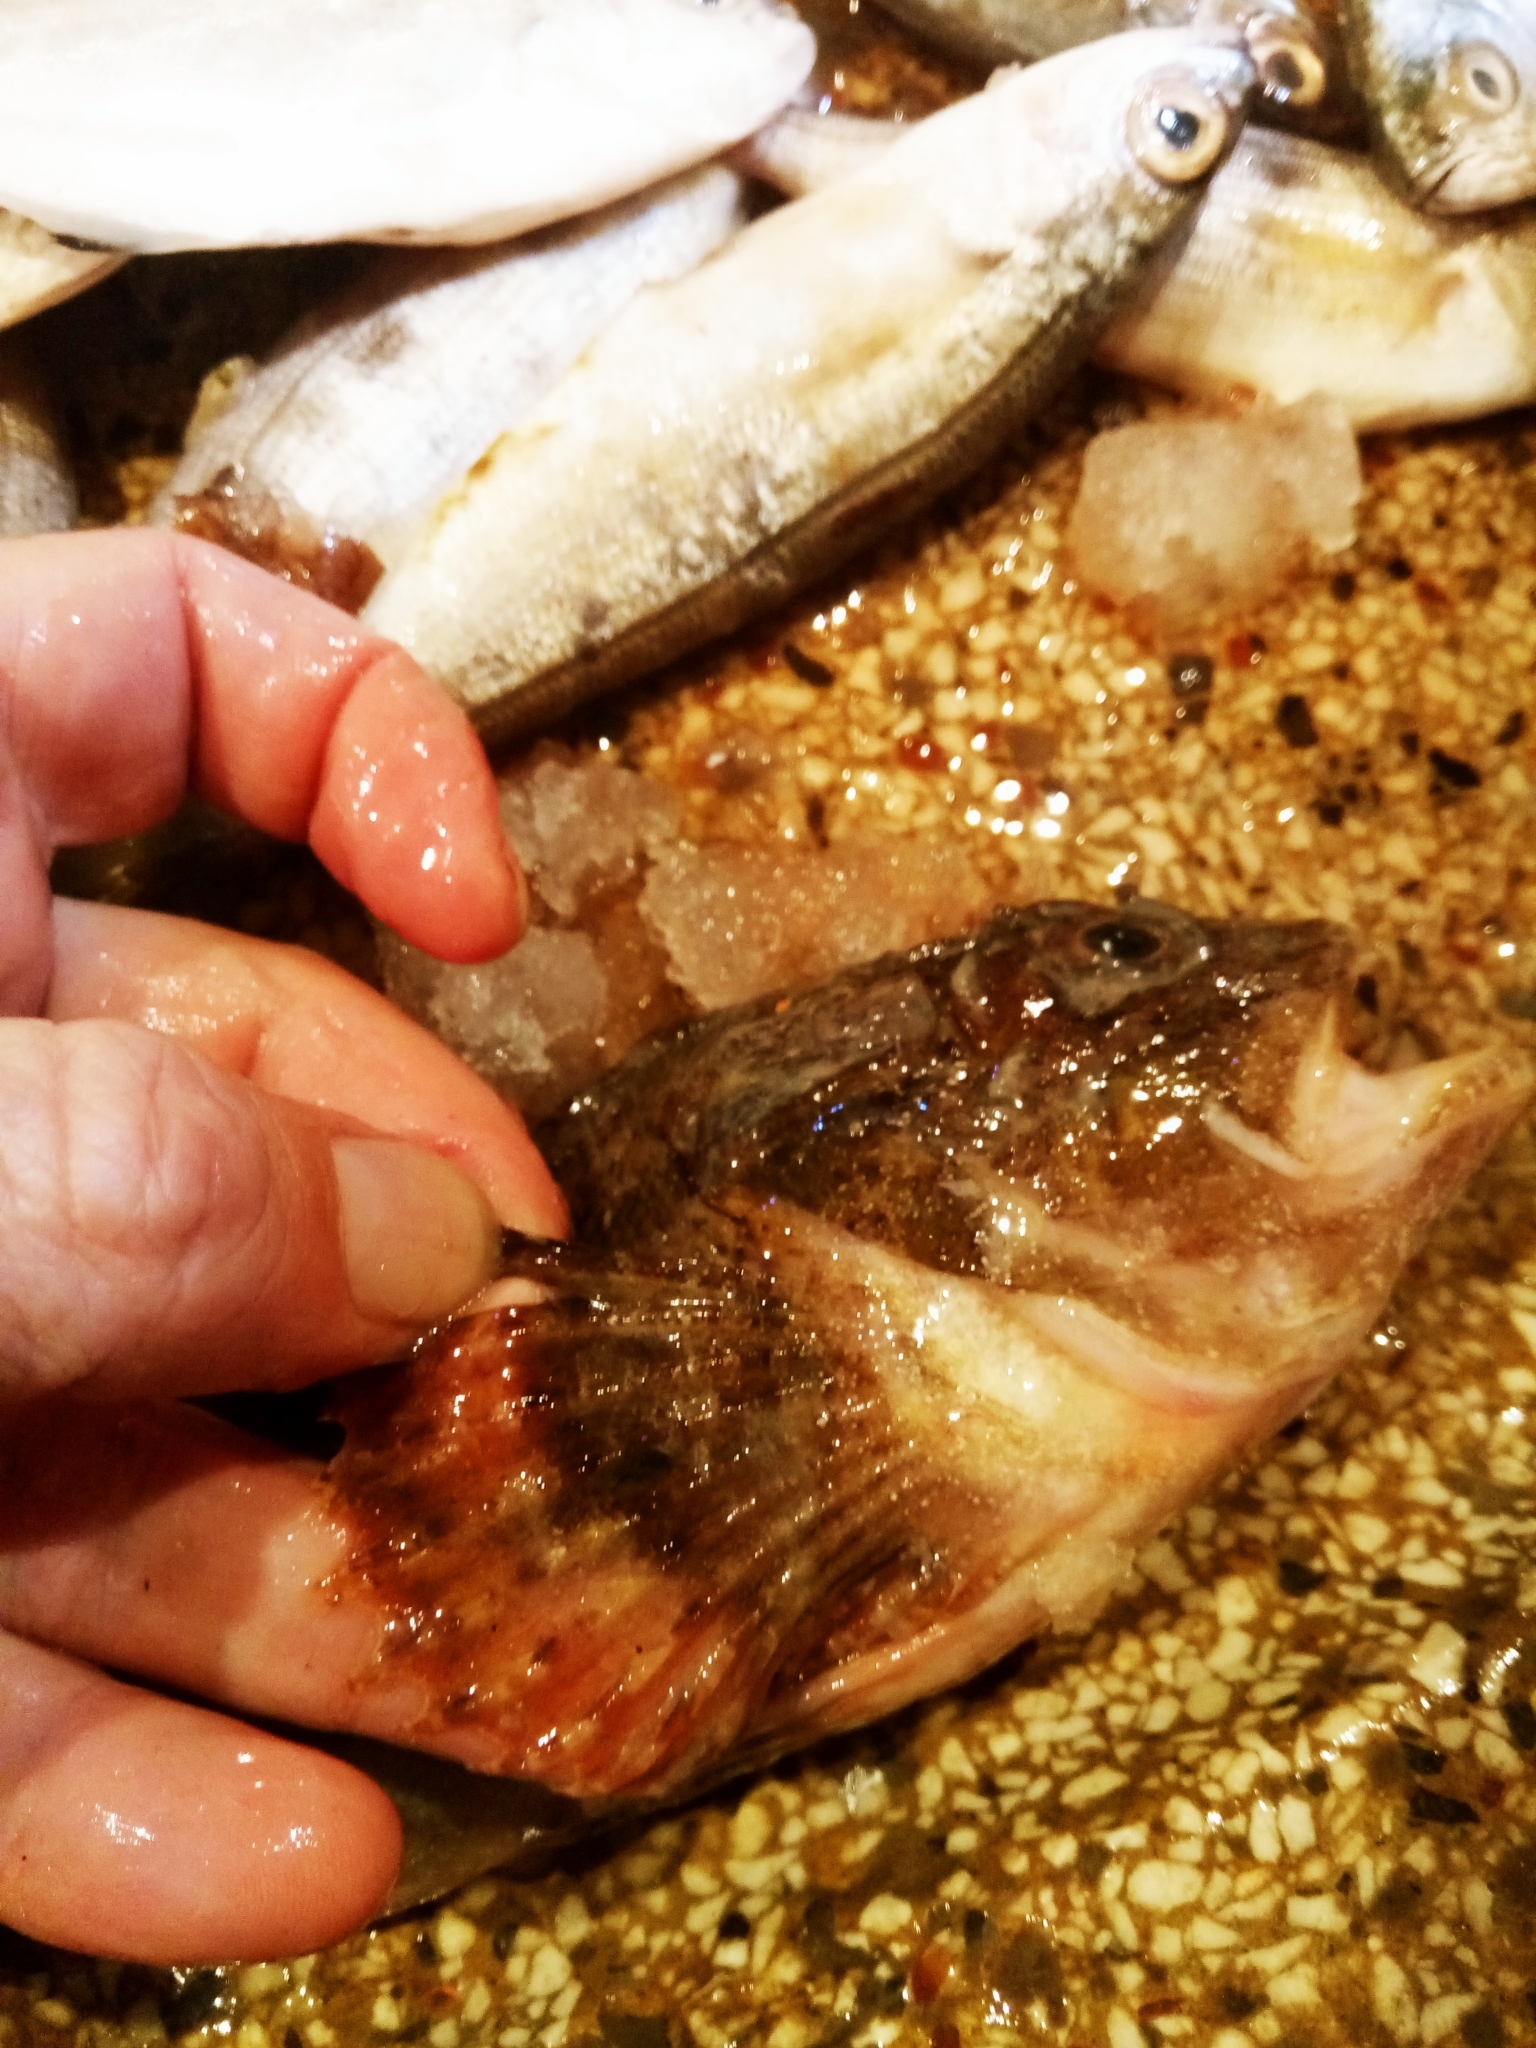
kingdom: Animalia
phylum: Chordata
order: Scorpaeniformes
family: Scorpaenidae
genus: Scorpaena
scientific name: Scorpaena porcus
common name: Black scorpionfish
